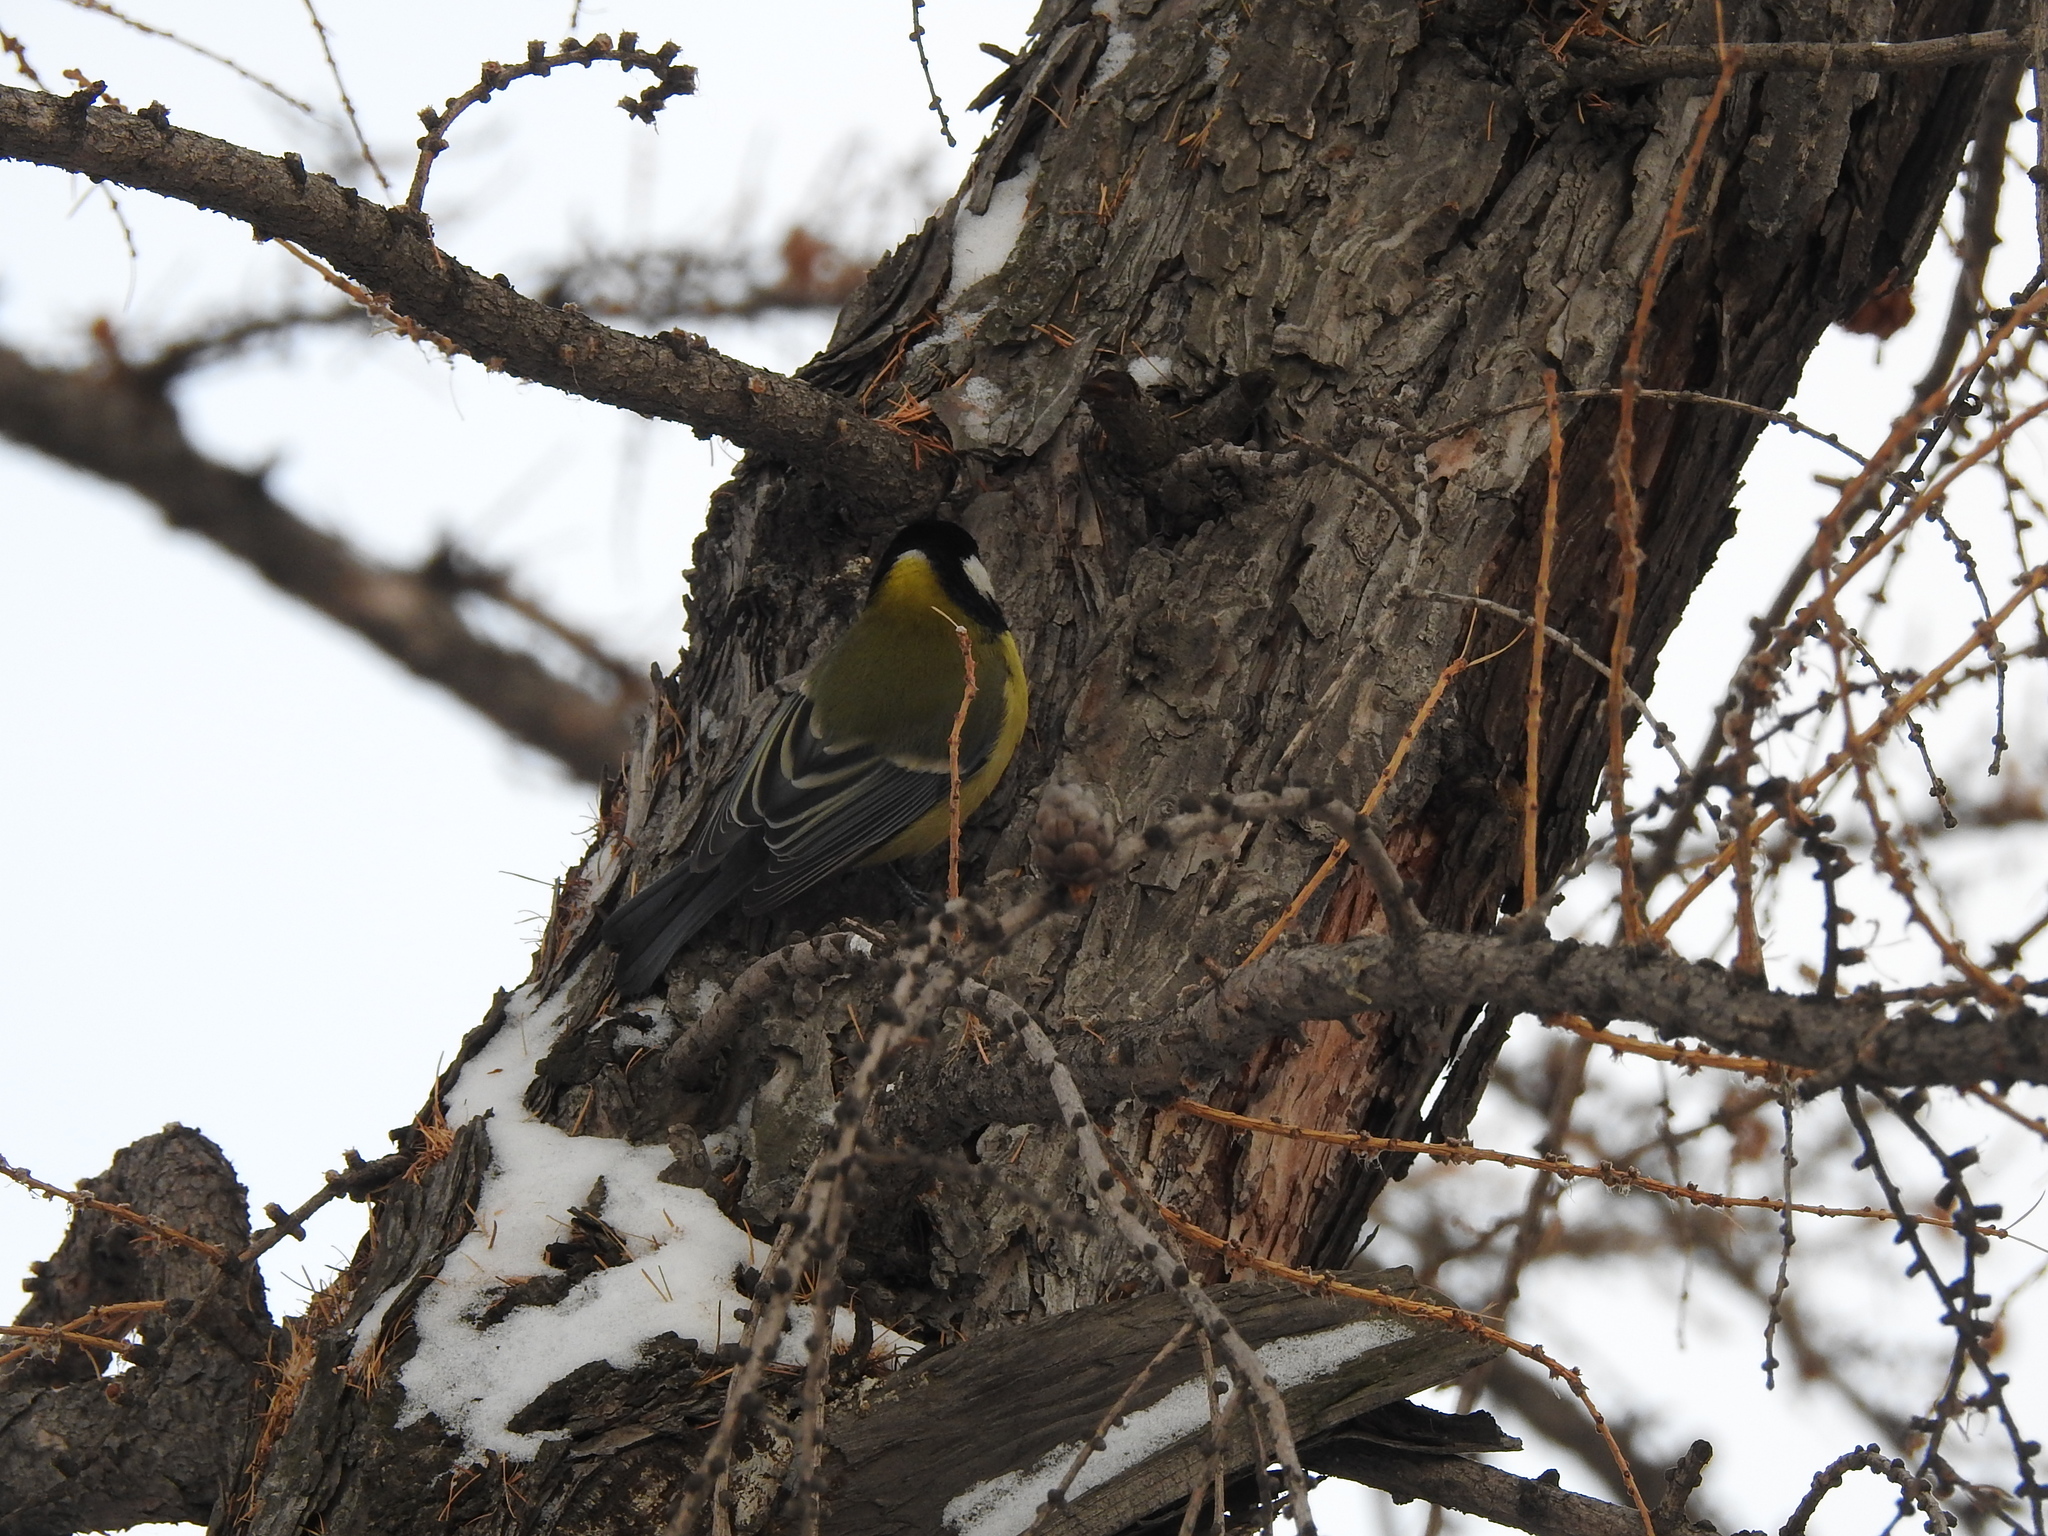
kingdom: Animalia
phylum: Chordata
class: Aves
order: Passeriformes
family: Paridae
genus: Parus
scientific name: Parus major
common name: Great tit
